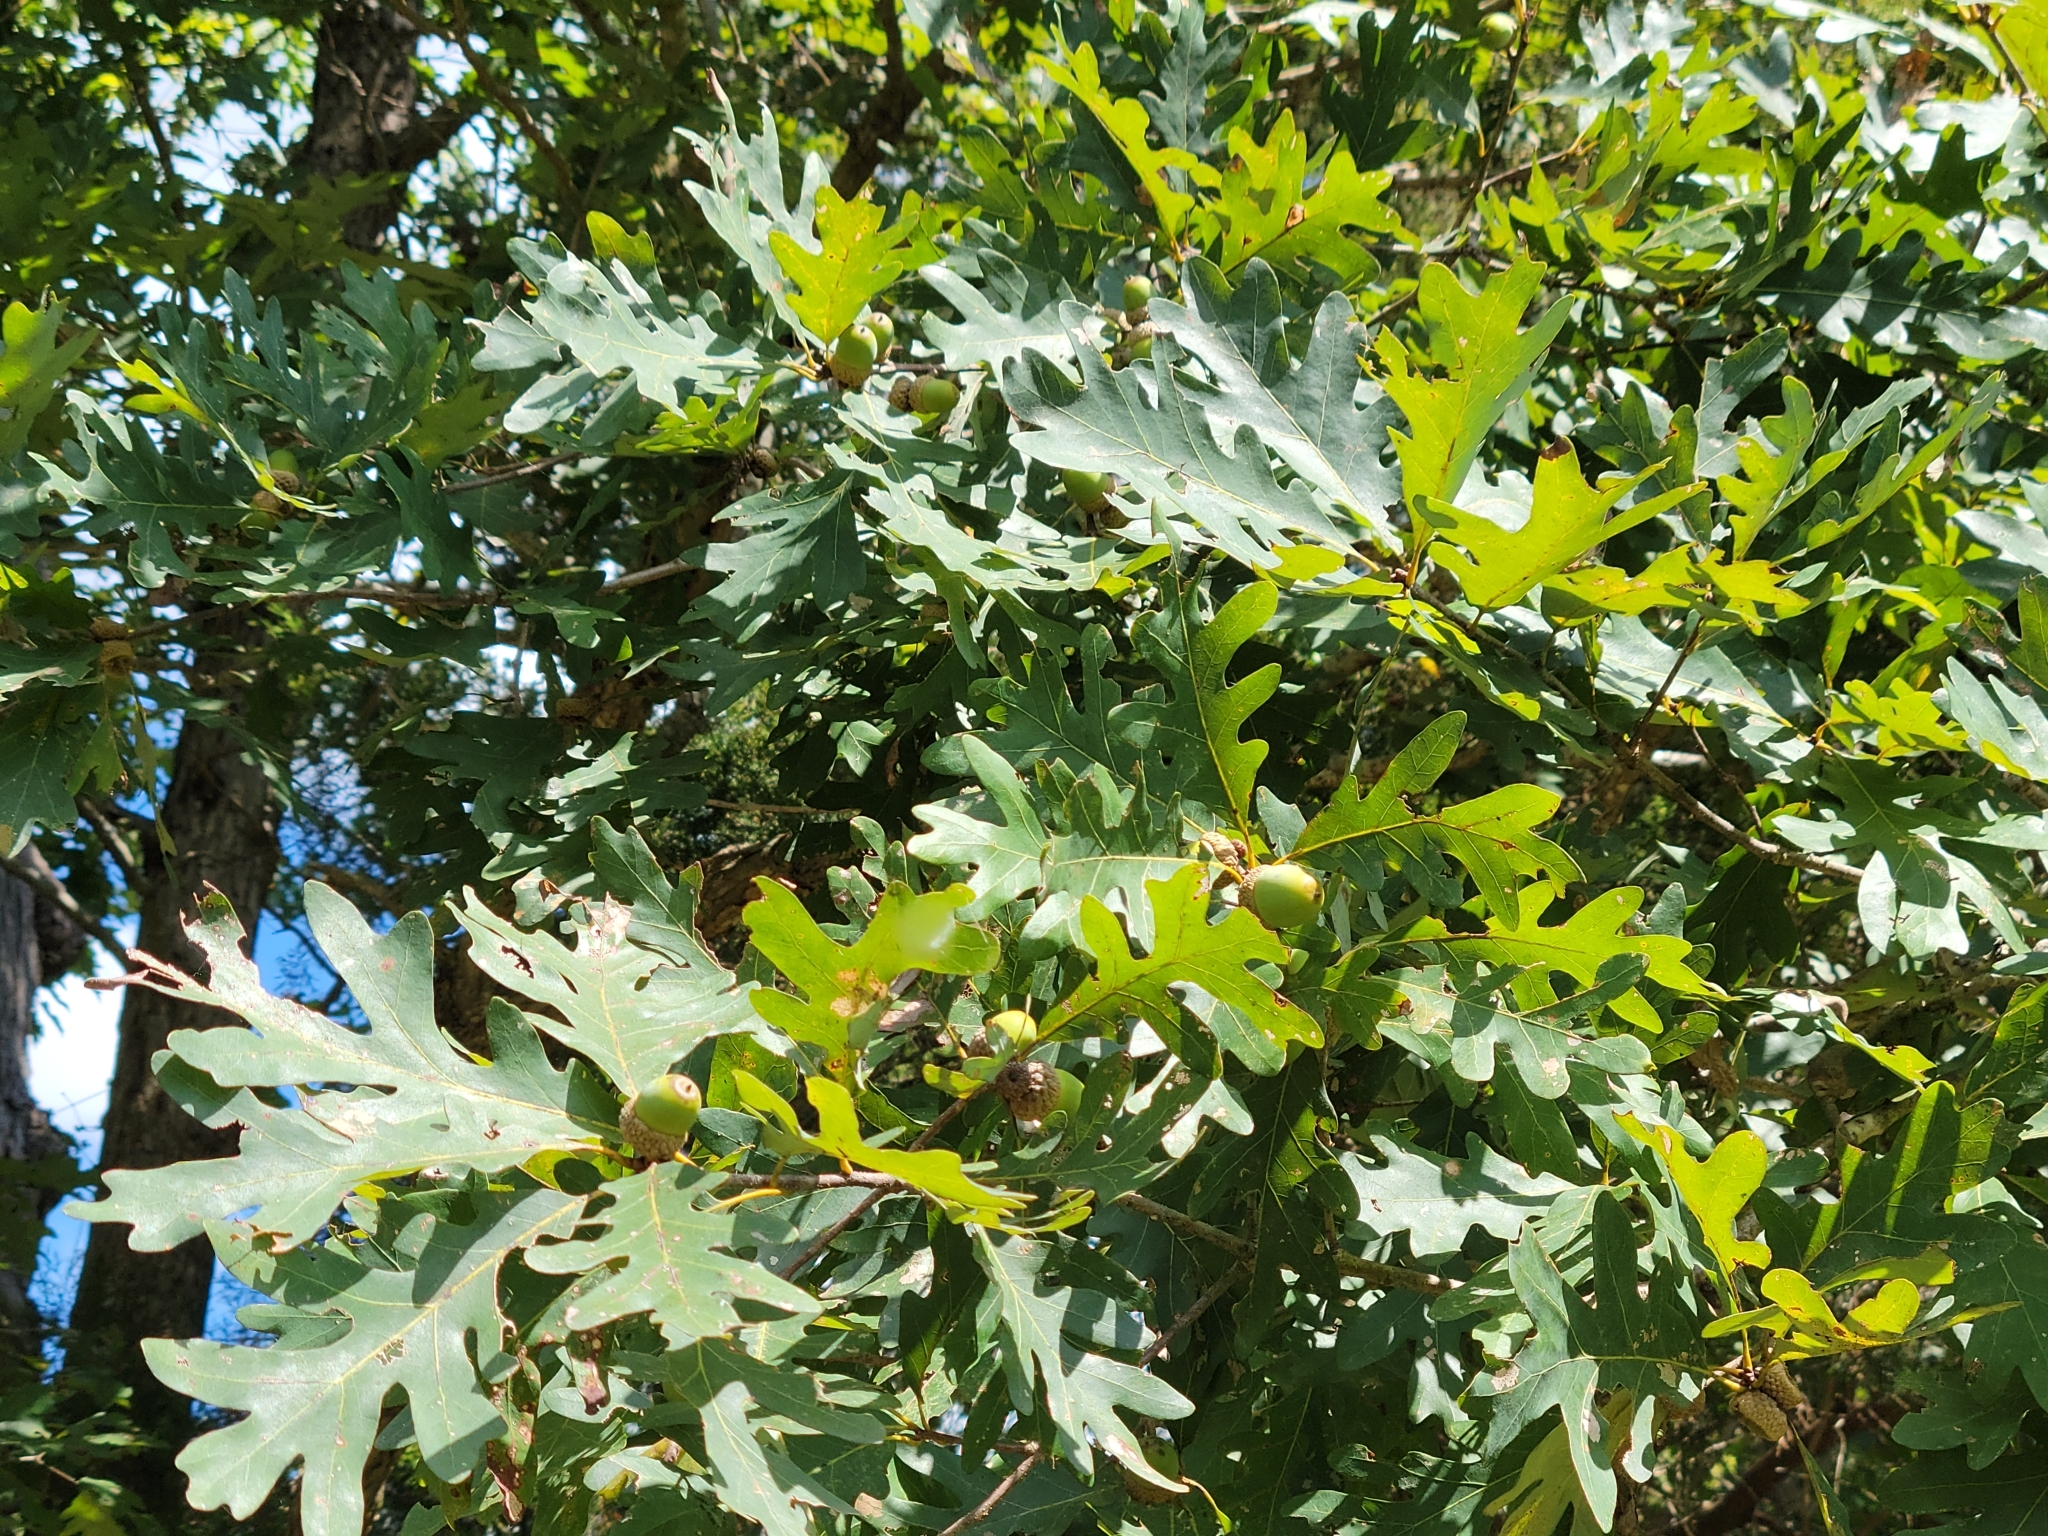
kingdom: Plantae
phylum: Tracheophyta
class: Magnoliopsida
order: Fagales
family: Fagaceae
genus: Quercus
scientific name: Quercus alba
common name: White oak
